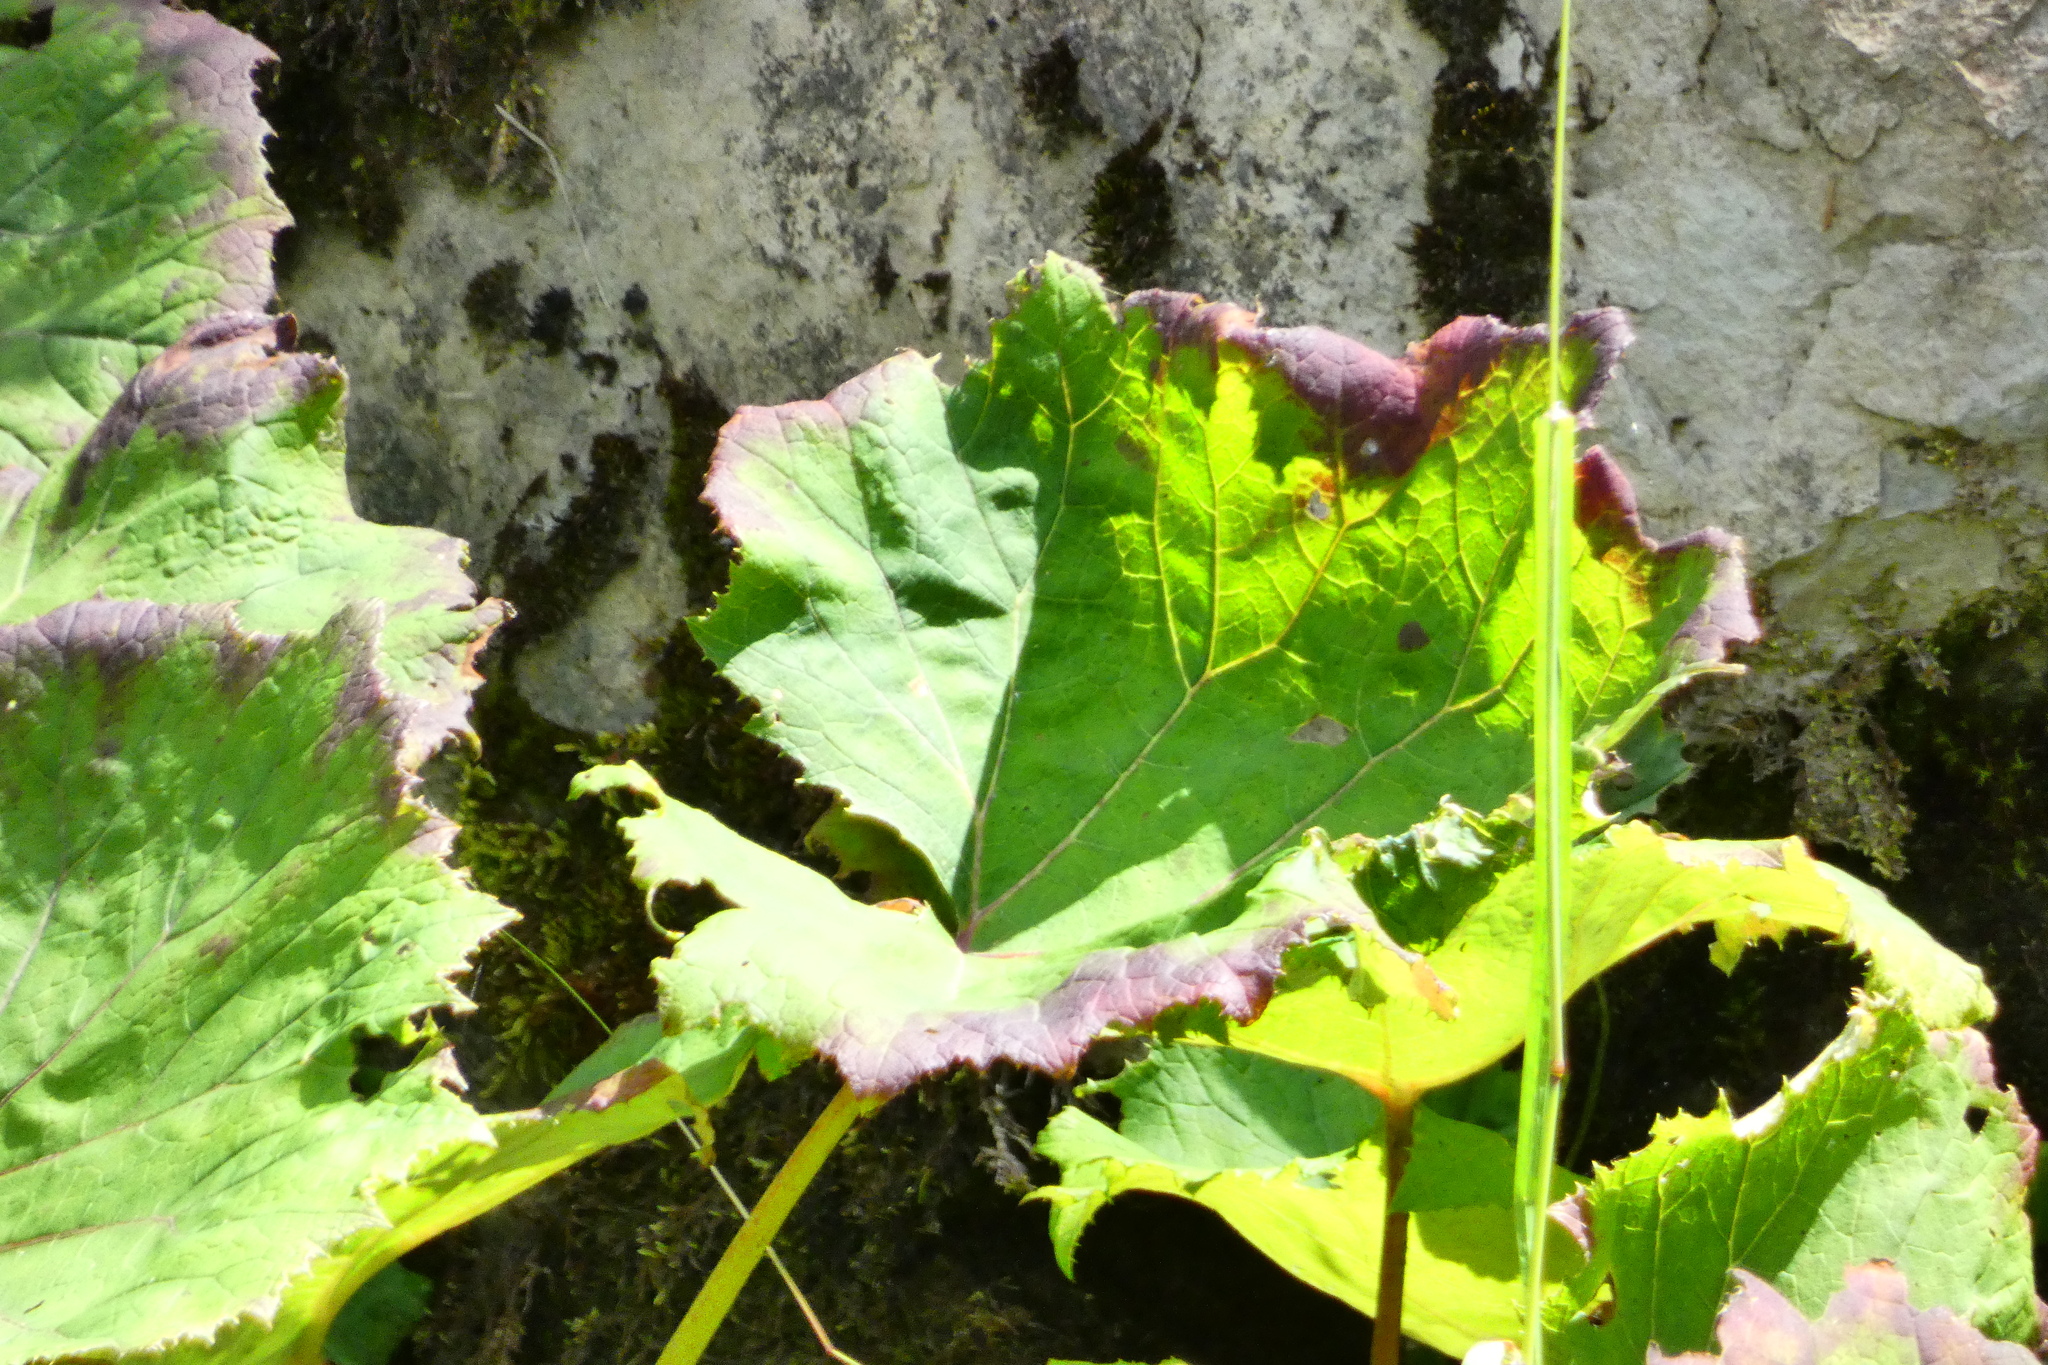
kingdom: Plantae
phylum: Tracheophyta
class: Magnoliopsida
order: Asterales
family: Asteraceae
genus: Petasites
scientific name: Petasites albus
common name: White butterbur
